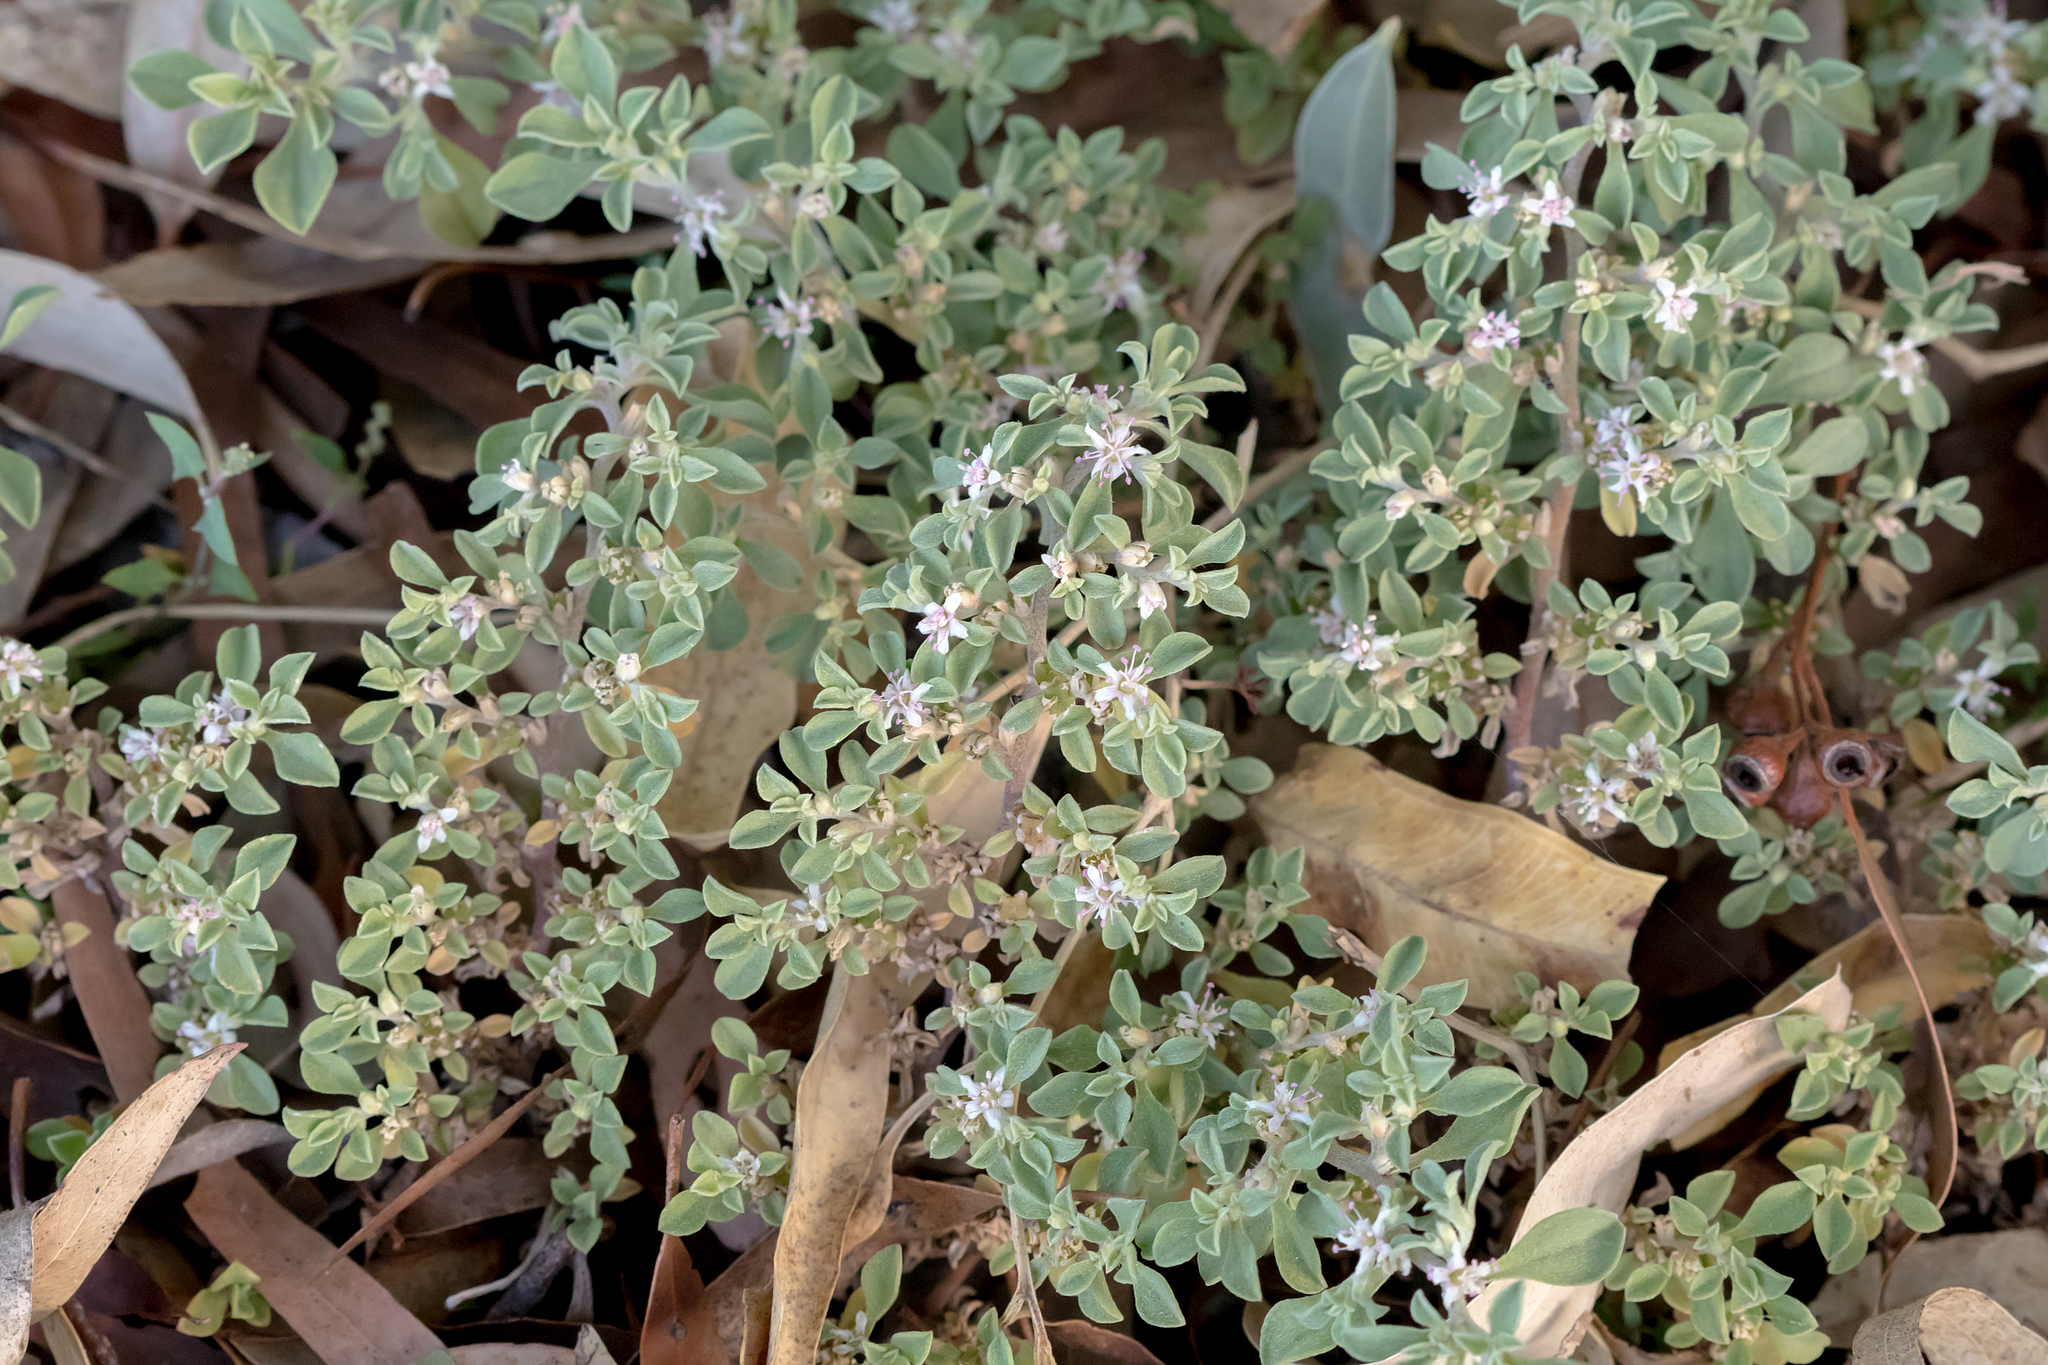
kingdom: Plantae
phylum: Tracheophyta
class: Magnoliopsida
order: Caryophyllales
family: Aizoaceae
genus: Aizoon
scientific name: Aizoon pubescens
